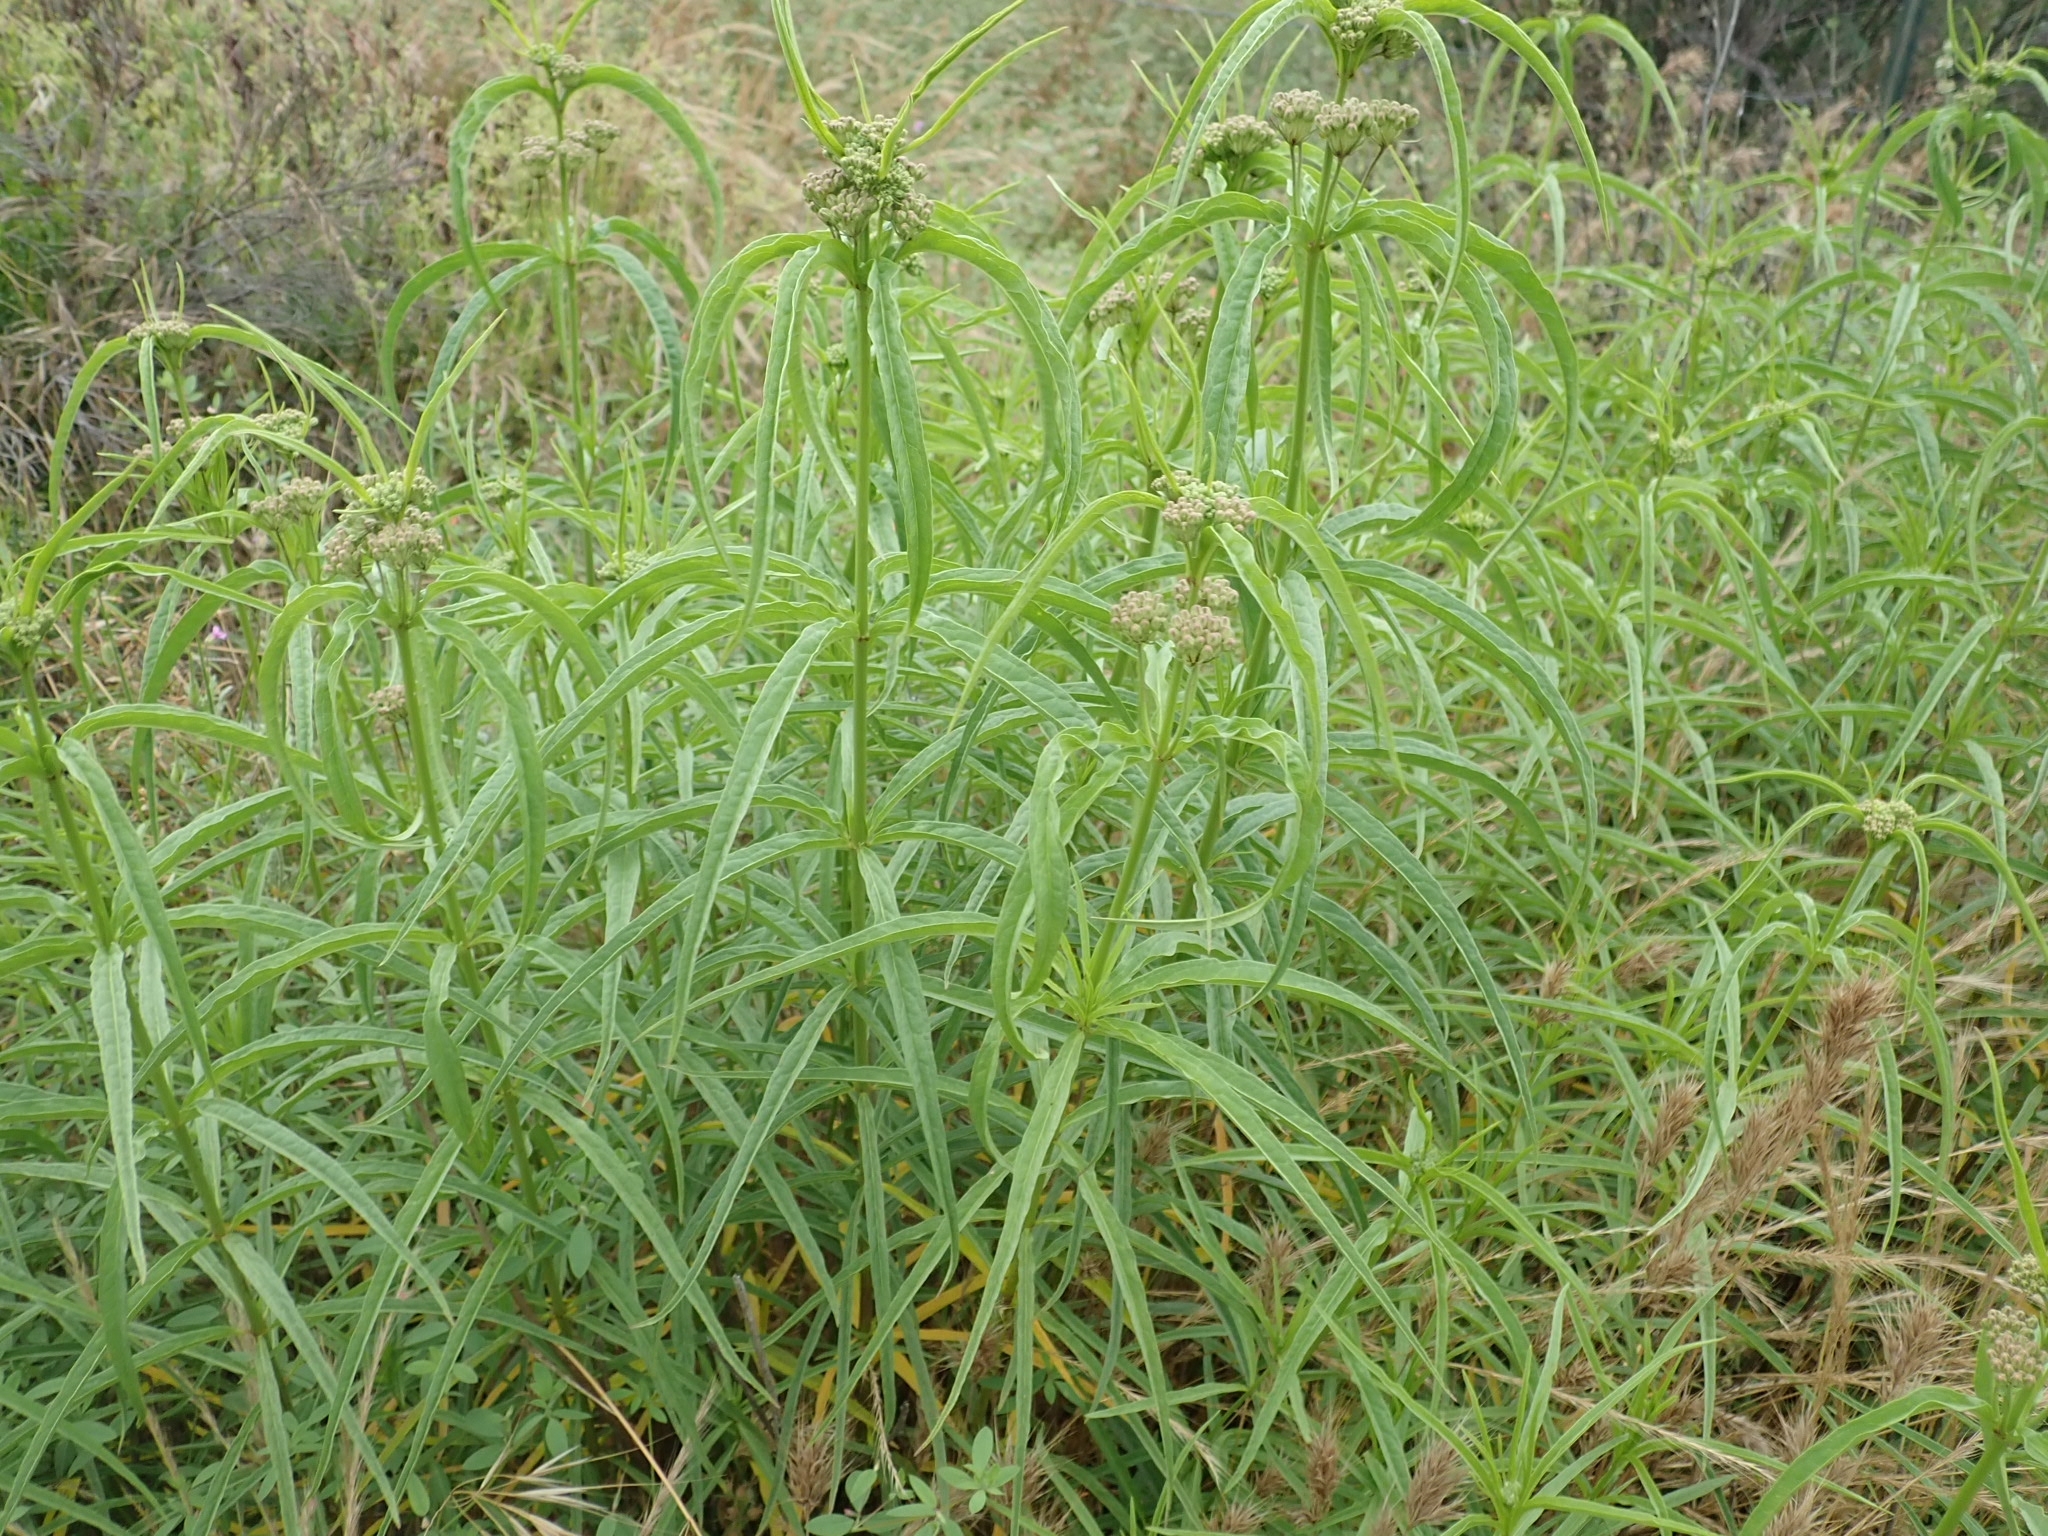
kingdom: Plantae
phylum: Tracheophyta
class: Magnoliopsida
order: Gentianales
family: Apocynaceae
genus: Asclepias
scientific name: Asclepias fascicularis
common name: Mexican milkweed
